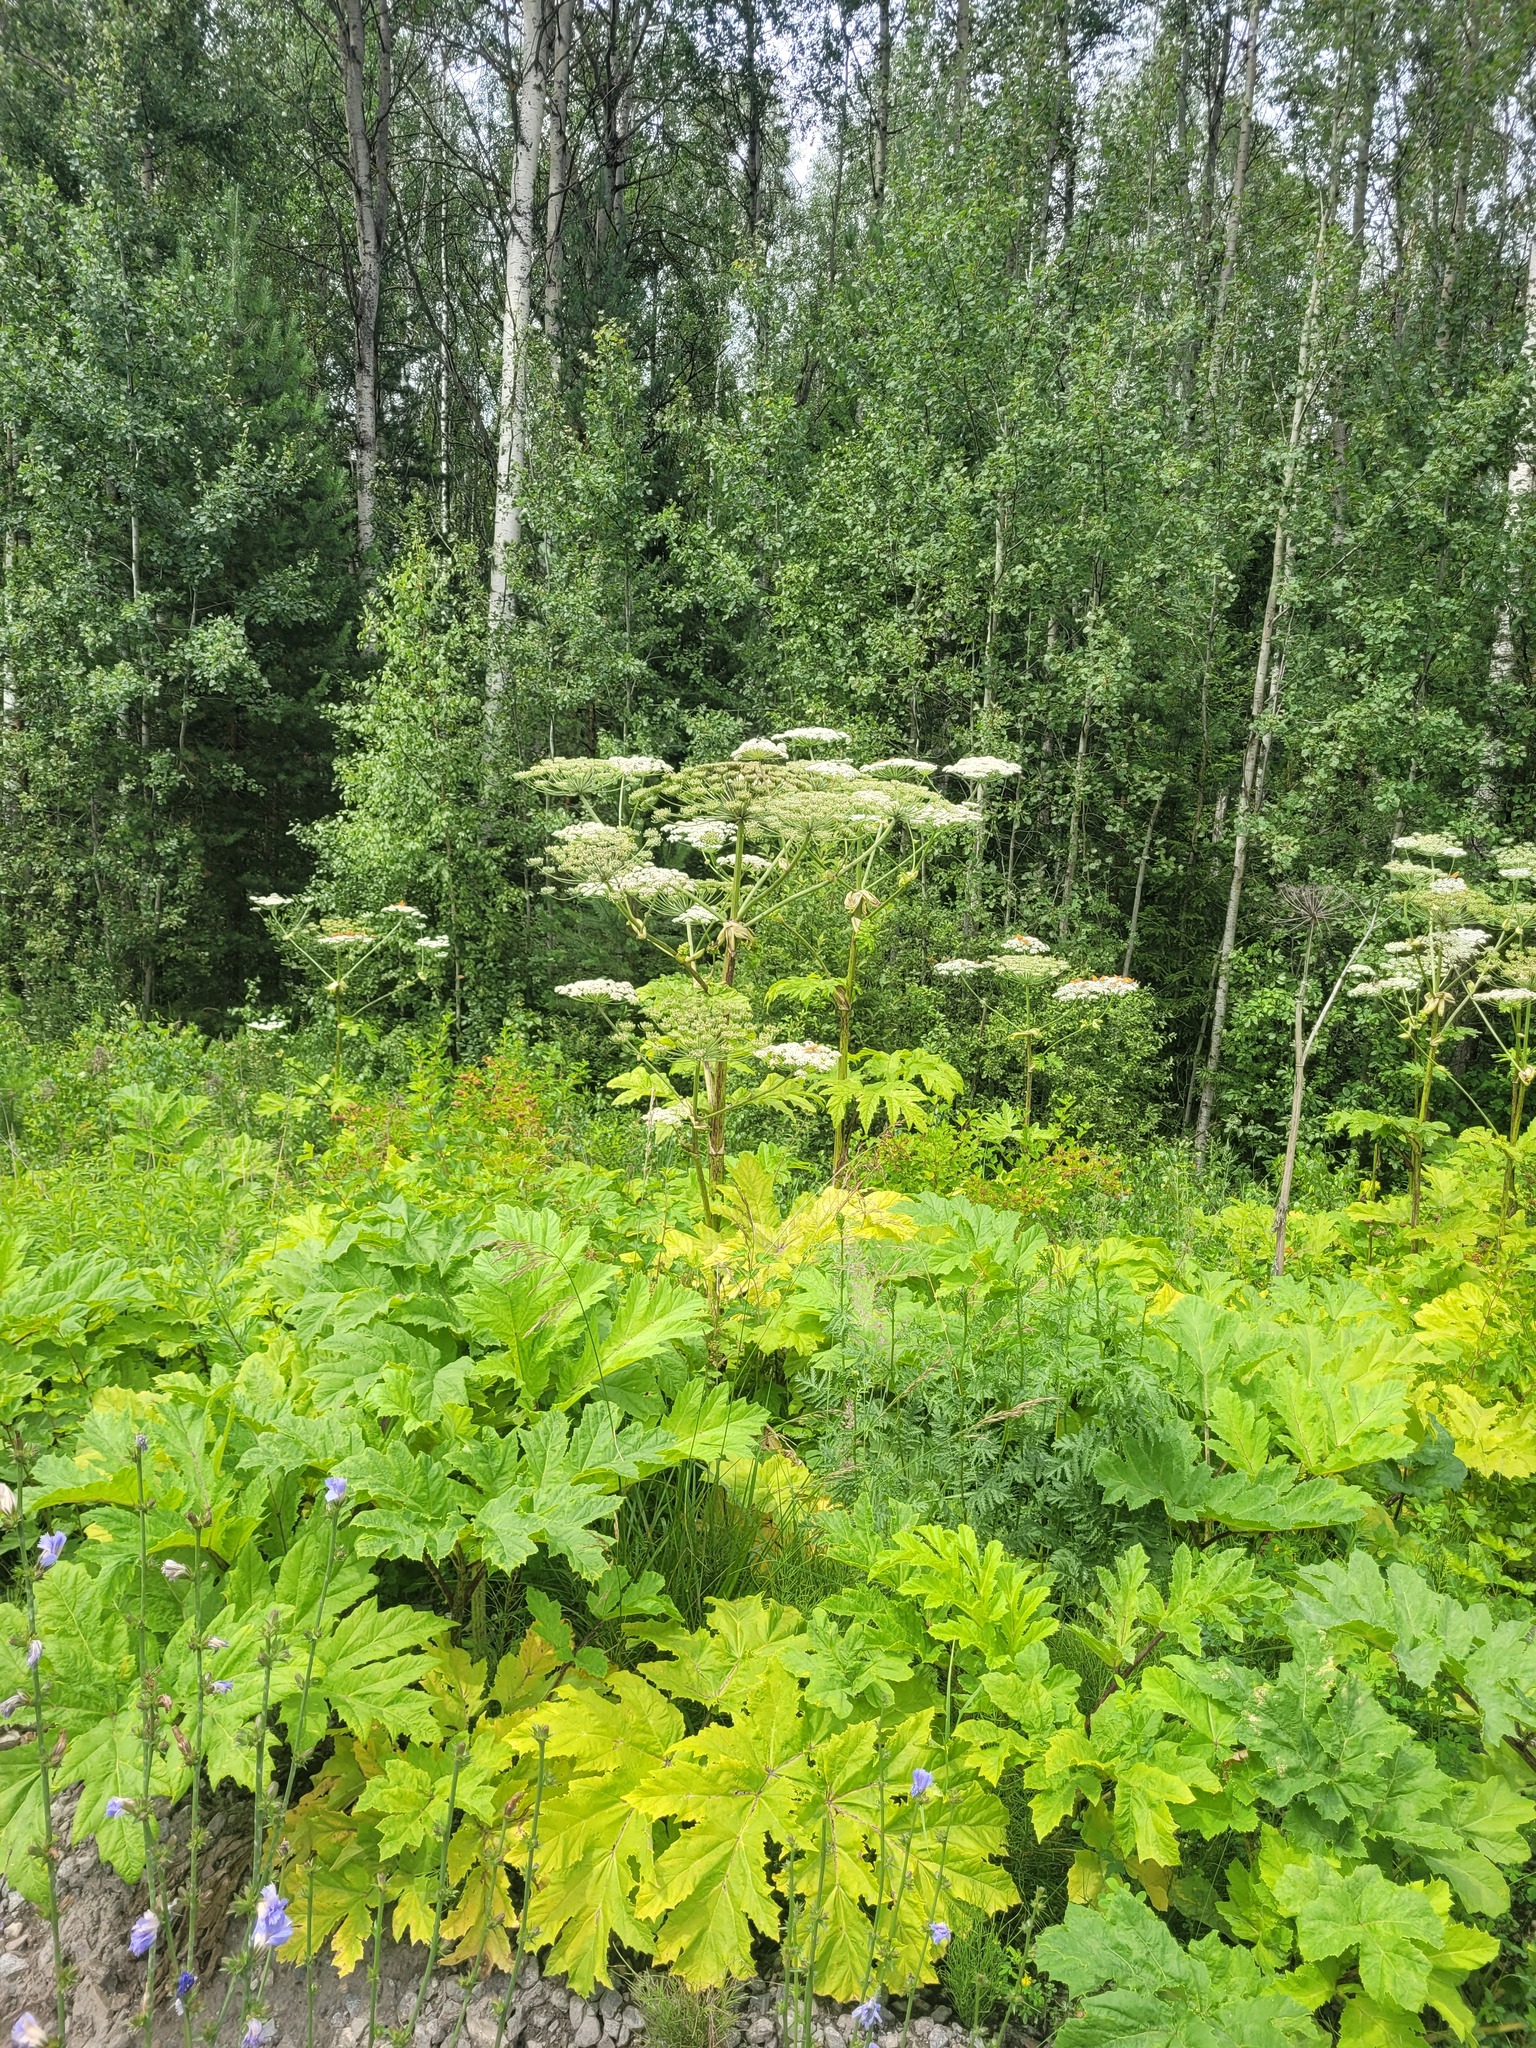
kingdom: Plantae
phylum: Tracheophyta
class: Magnoliopsida
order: Apiales
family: Apiaceae
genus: Heracleum
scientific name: Heracleum sosnowskyi
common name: Sosnowsky's hogweed
